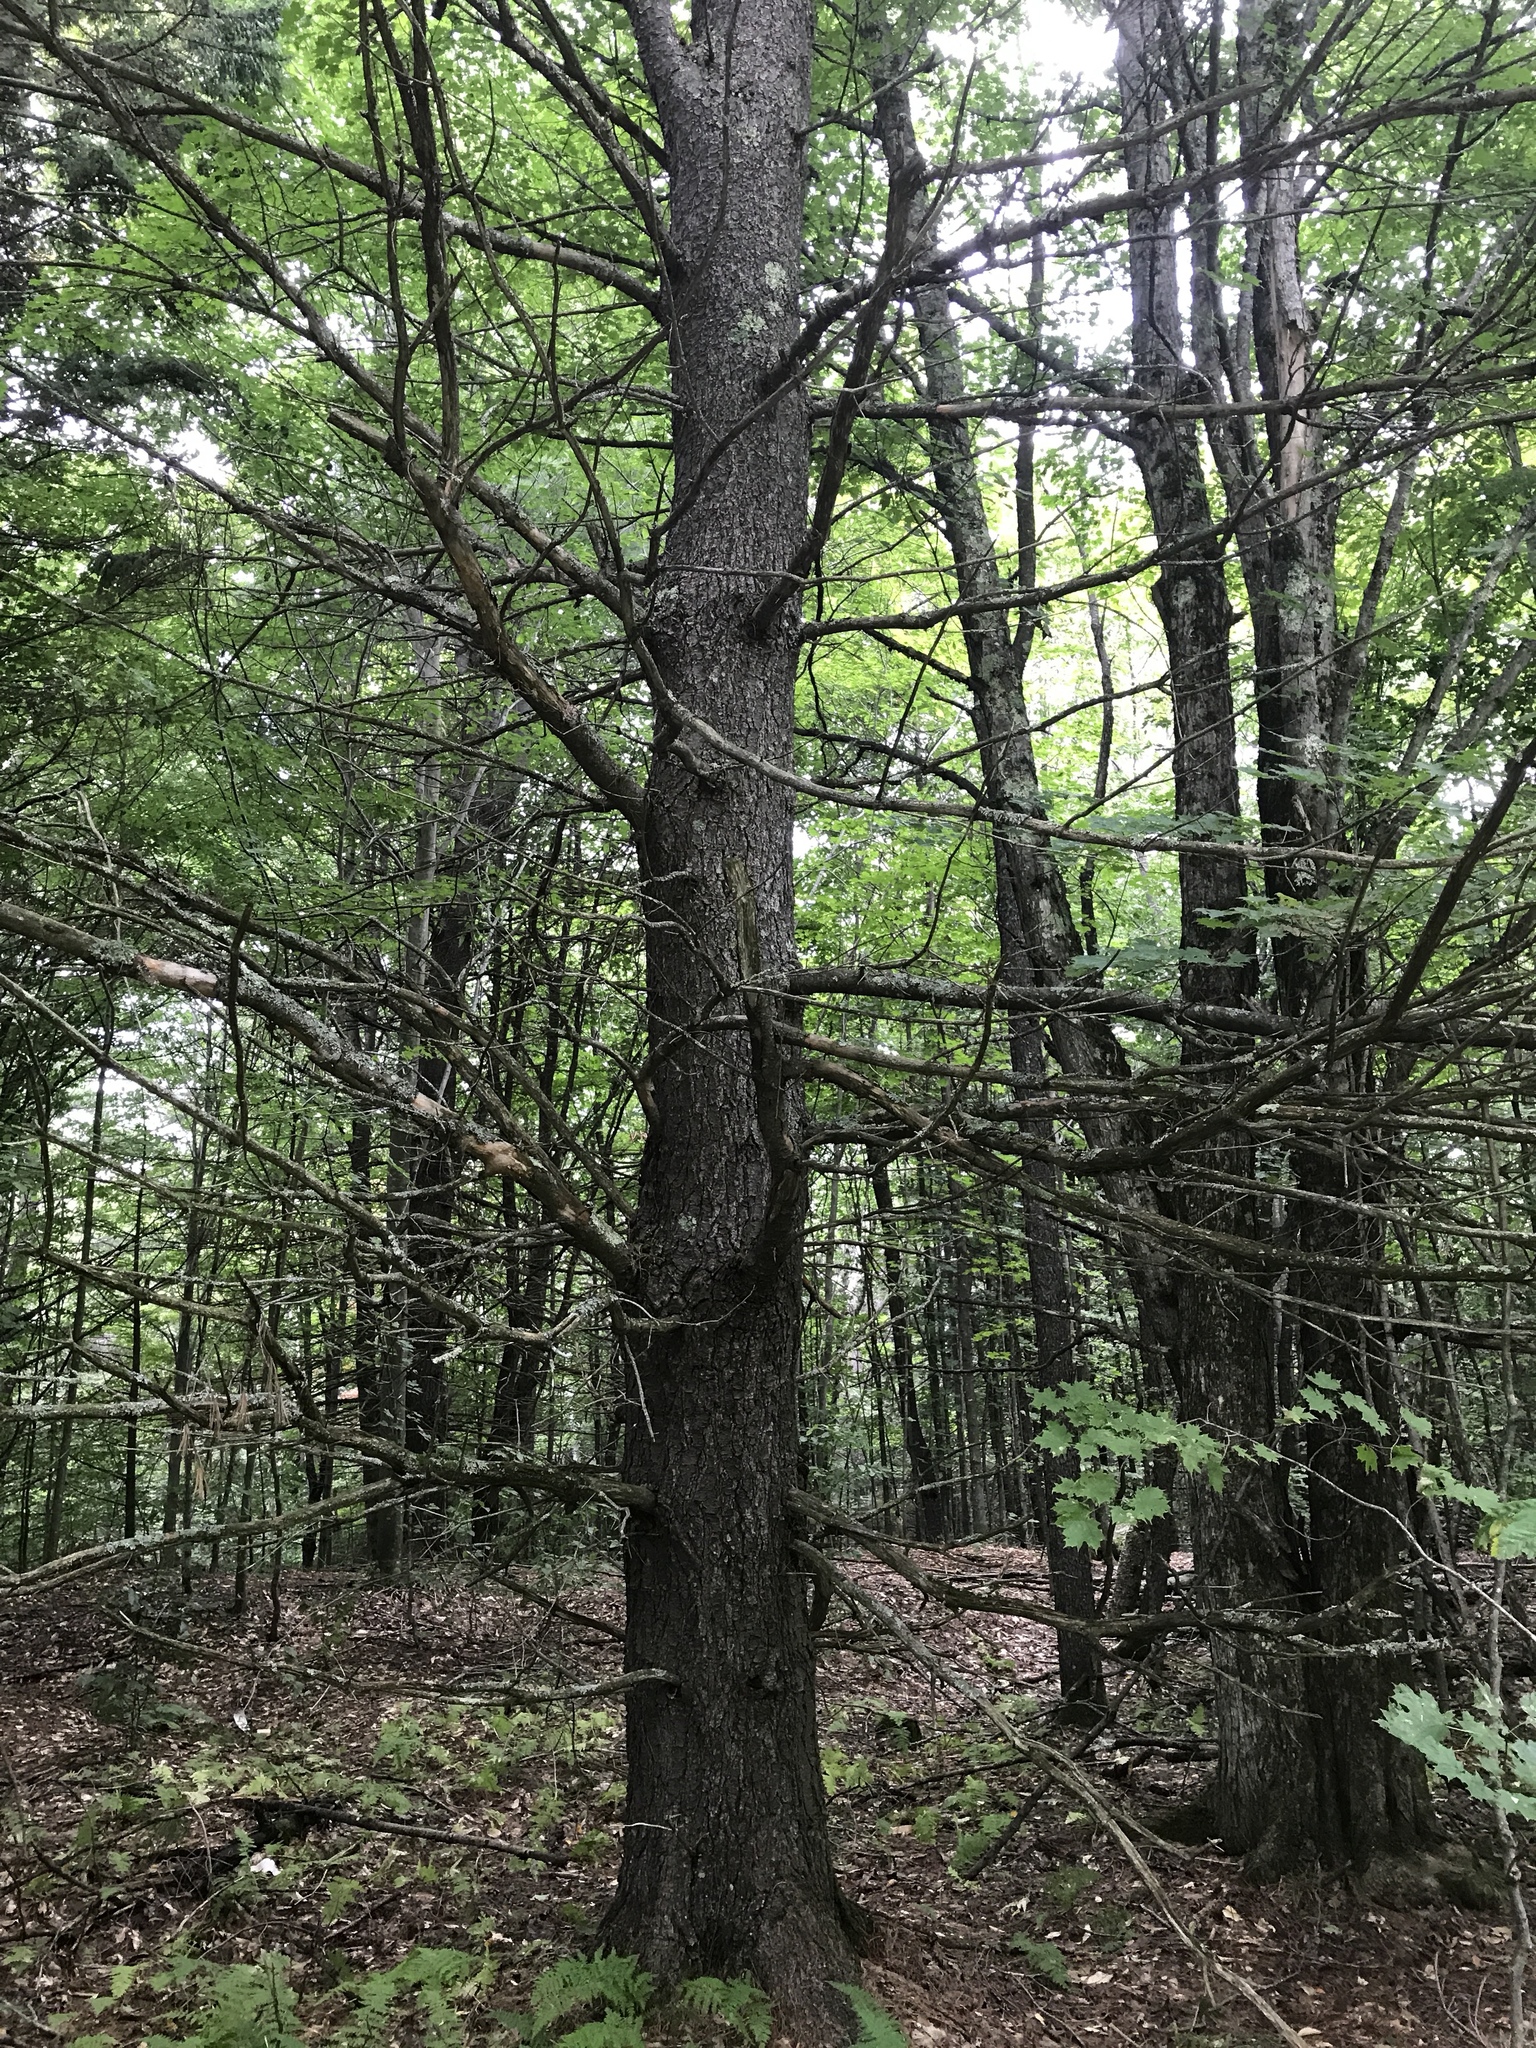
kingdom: Plantae
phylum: Tracheophyta
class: Pinopsida
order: Pinales
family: Pinaceae
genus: Pinus
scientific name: Pinus strobus
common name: Weymouth pine
